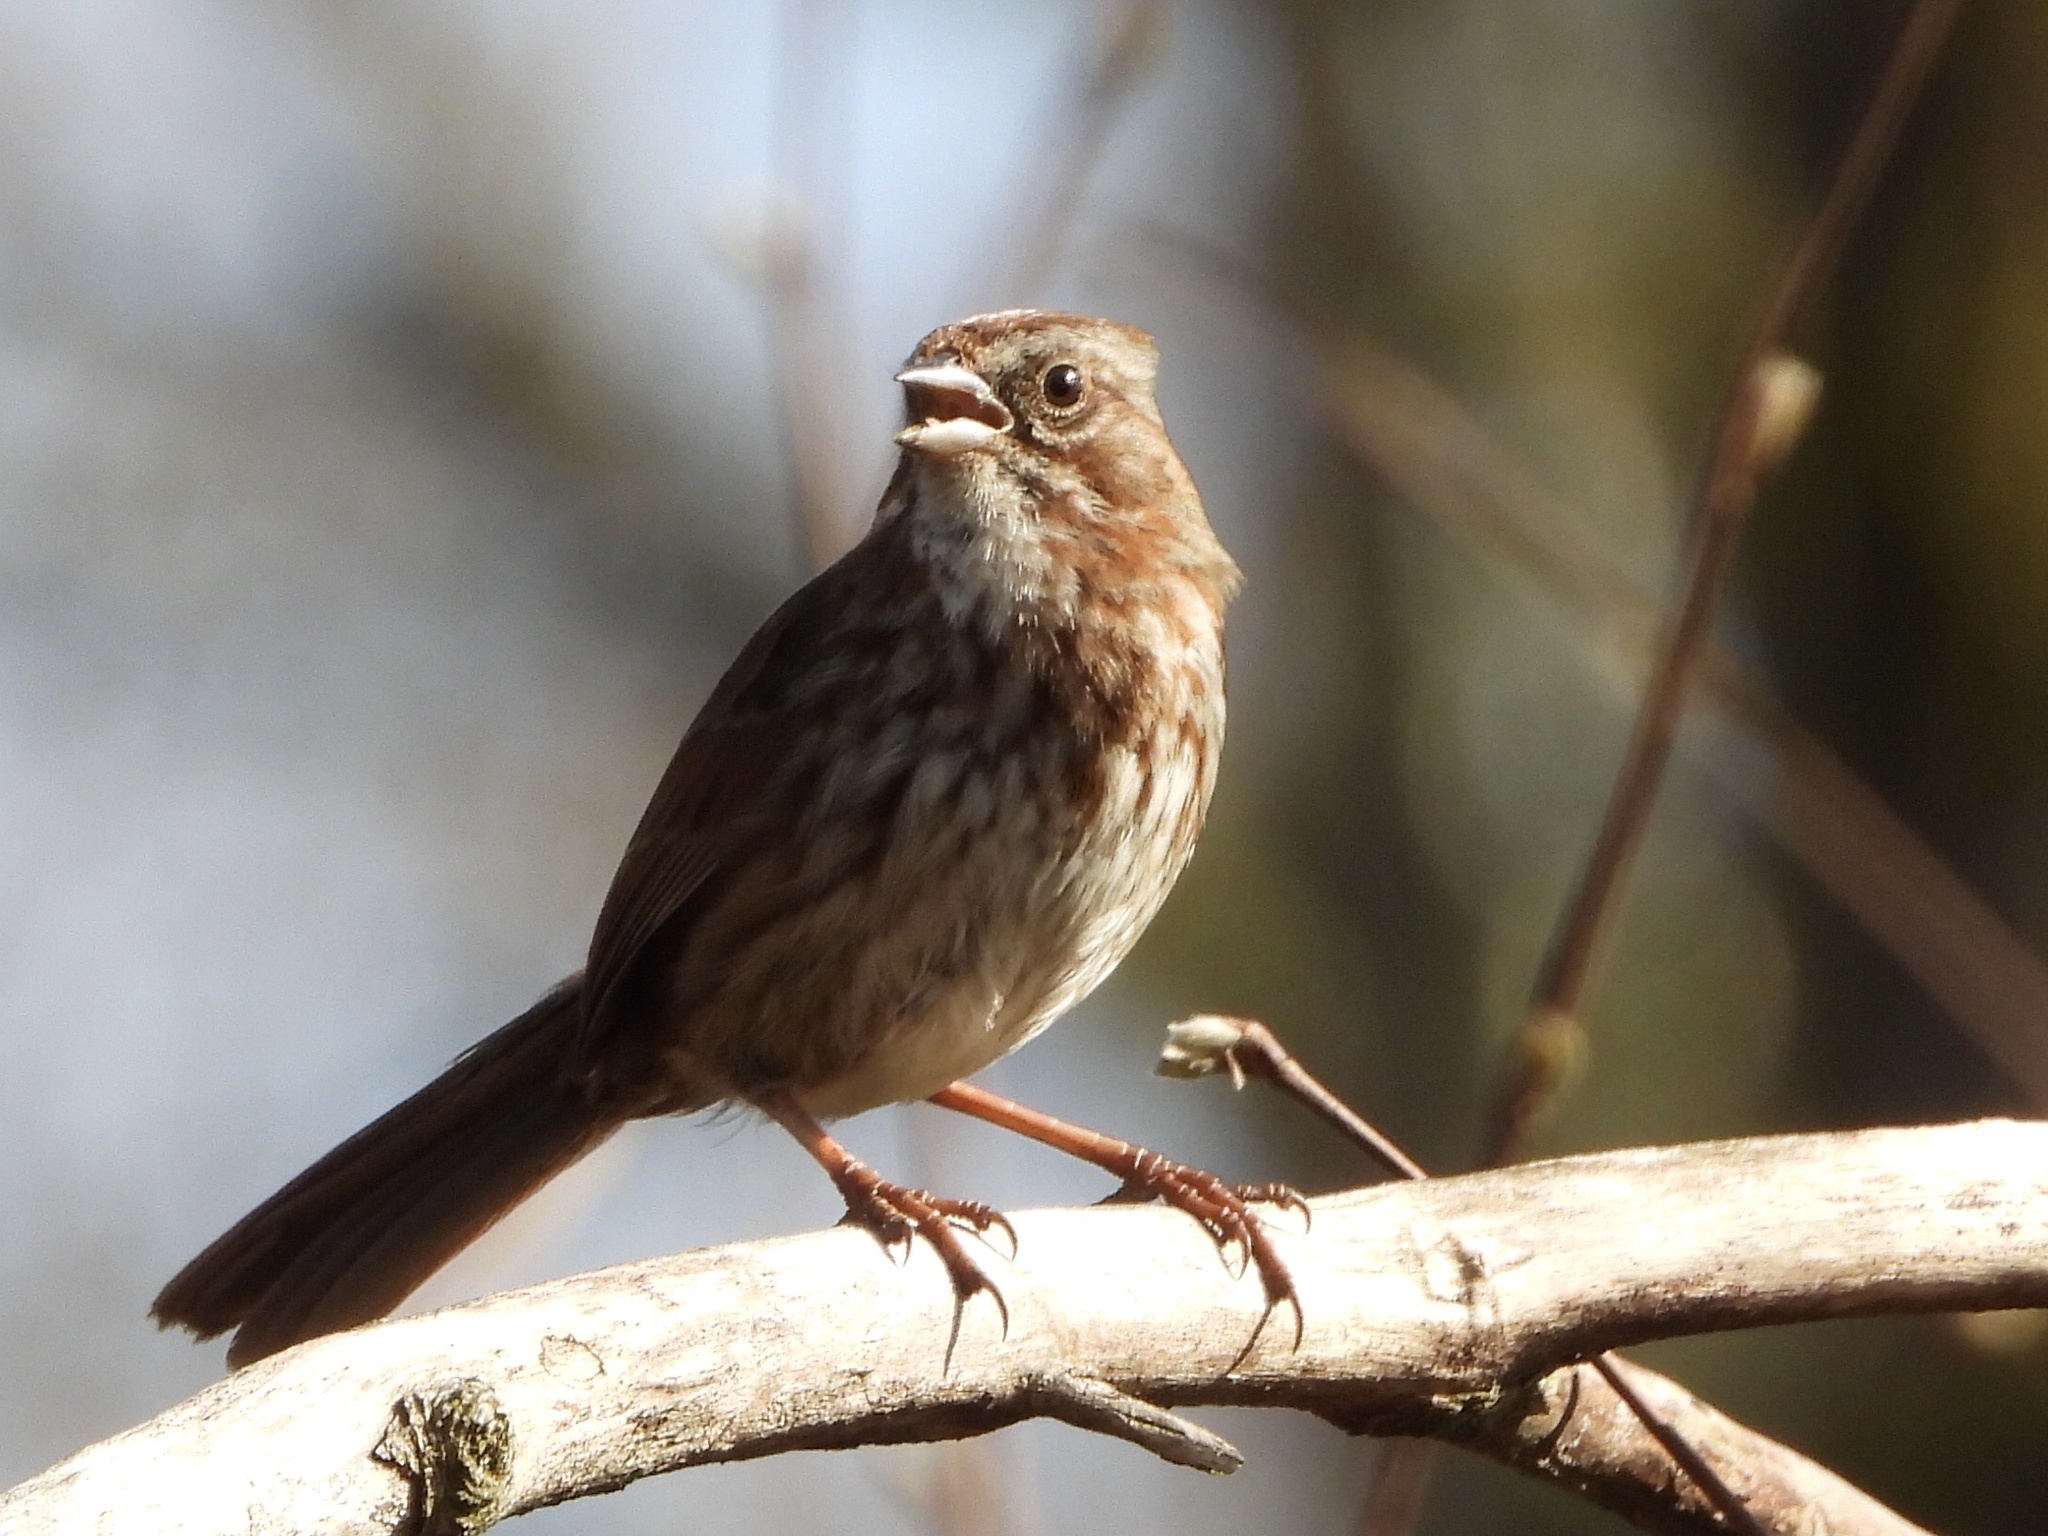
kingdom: Animalia
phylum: Chordata
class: Aves
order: Passeriformes
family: Passerellidae
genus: Melospiza
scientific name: Melospiza melodia
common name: Song sparrow
